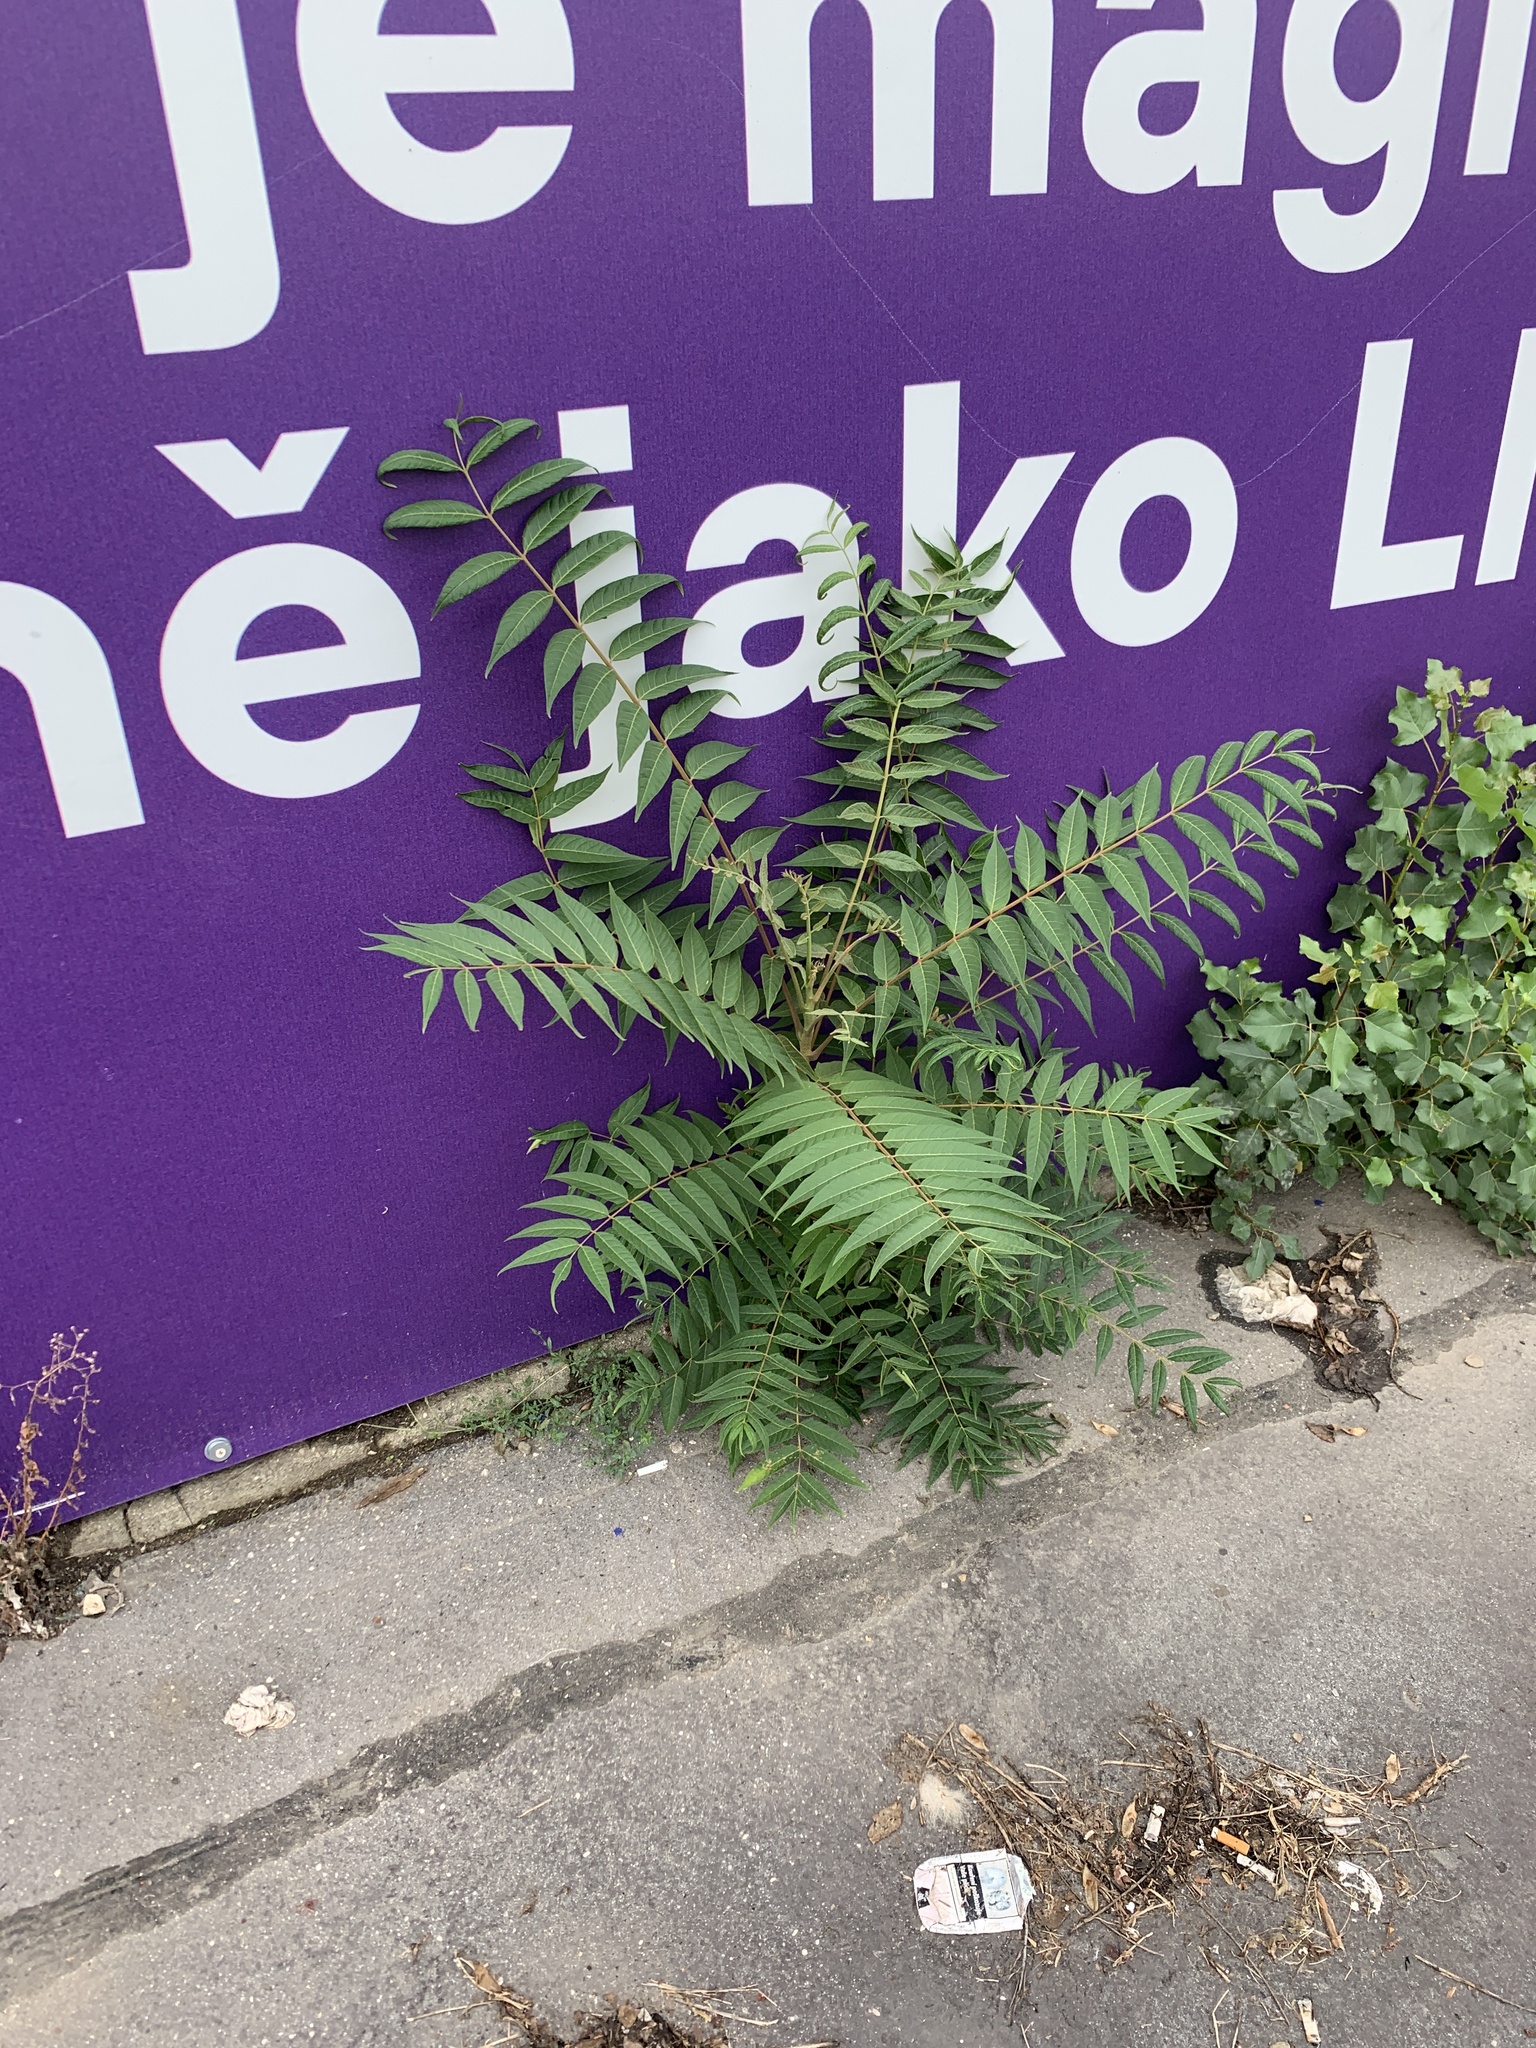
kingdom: Plantae
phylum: Tracheophyta
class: Magnoliopsida
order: Sapindales
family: Simaroubaceae
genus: Ailanthus
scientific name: Ailanthus altissima
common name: Tree-of-heaven
